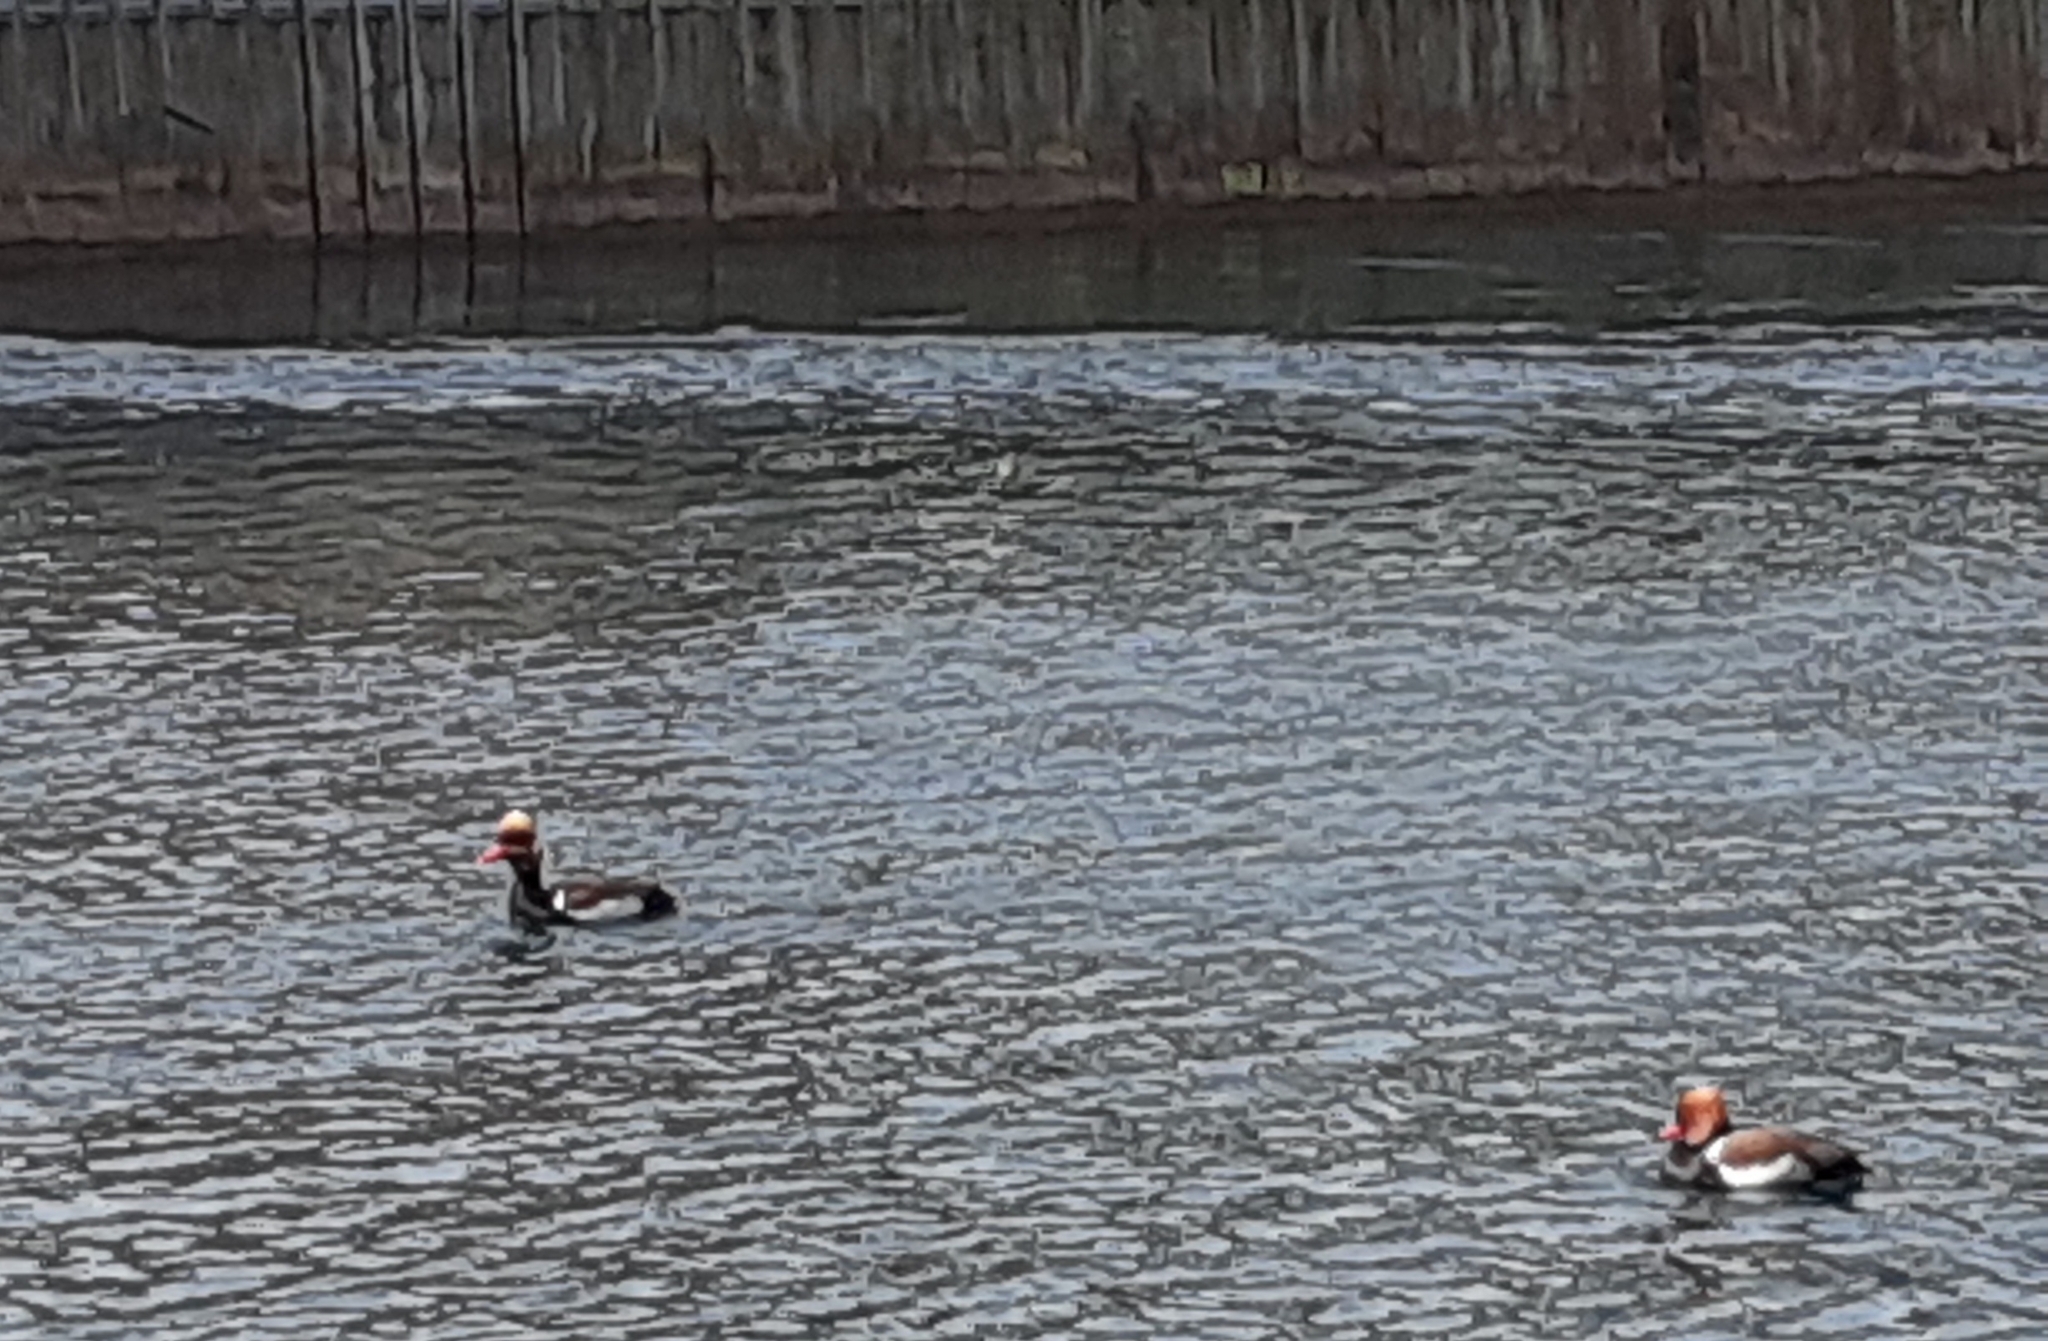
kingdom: Animalia
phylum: Chordata
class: Aves
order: Anseriformes
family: Anatidae
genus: Netta
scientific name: Netta rufina
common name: Red-crested pochard
